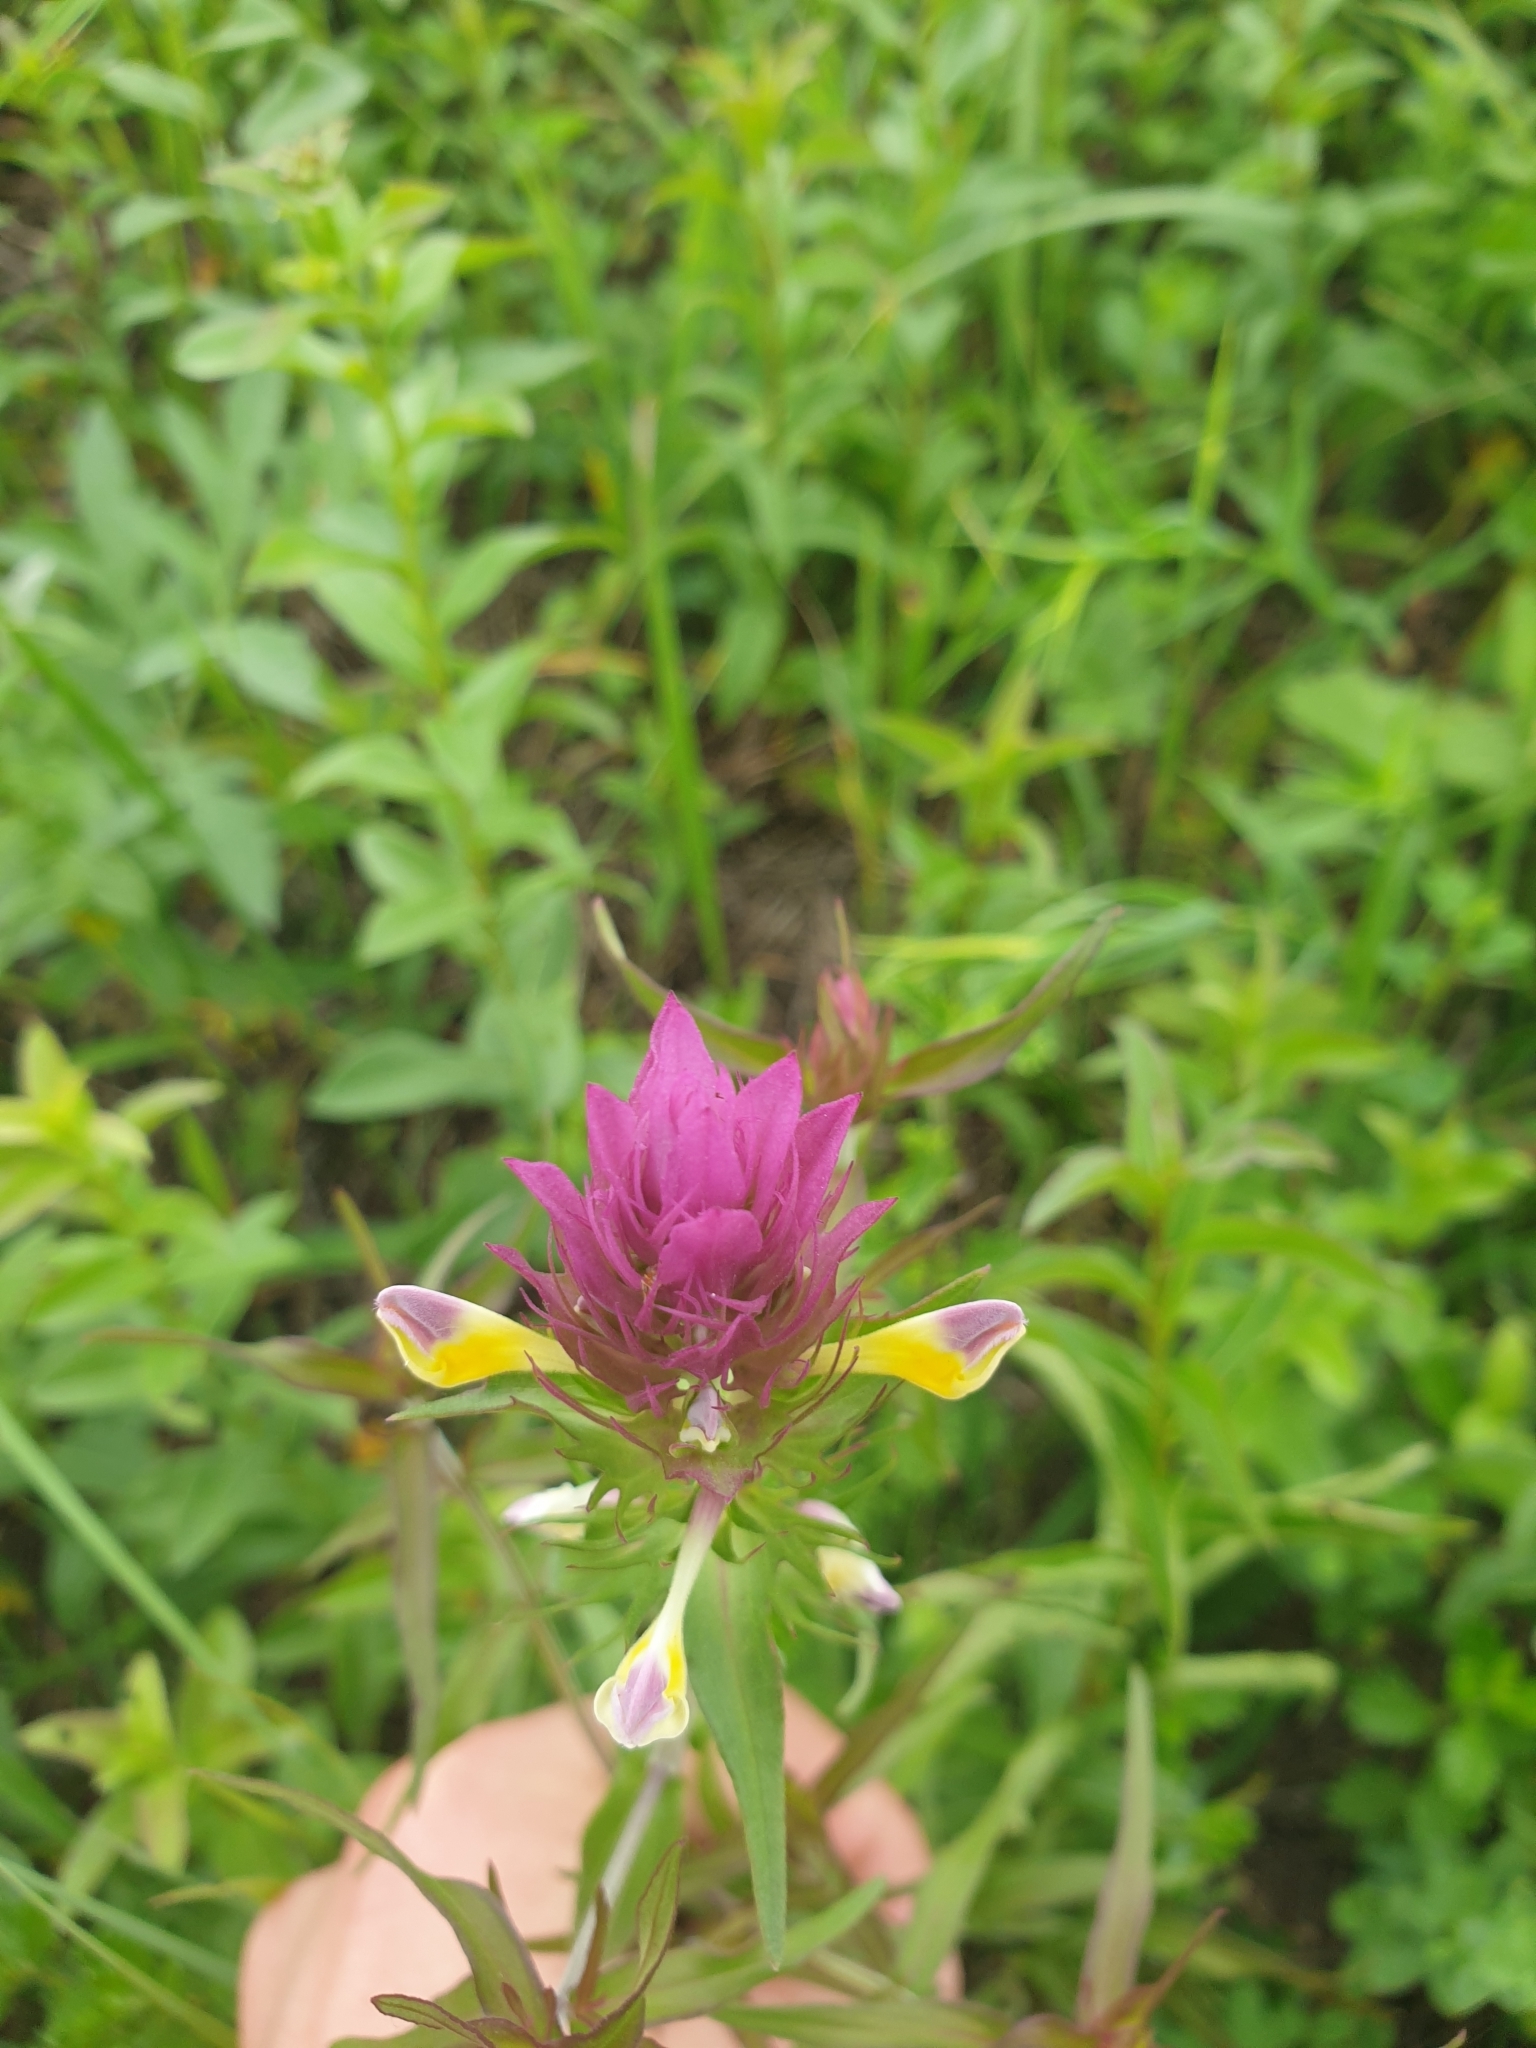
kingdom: Plantae
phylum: Tracheophyta
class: Magnoliopsida
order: Lamiales
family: Orobanchaceae
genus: Melampyrum
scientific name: Melampyrum arvense
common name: Field cow-wheat
